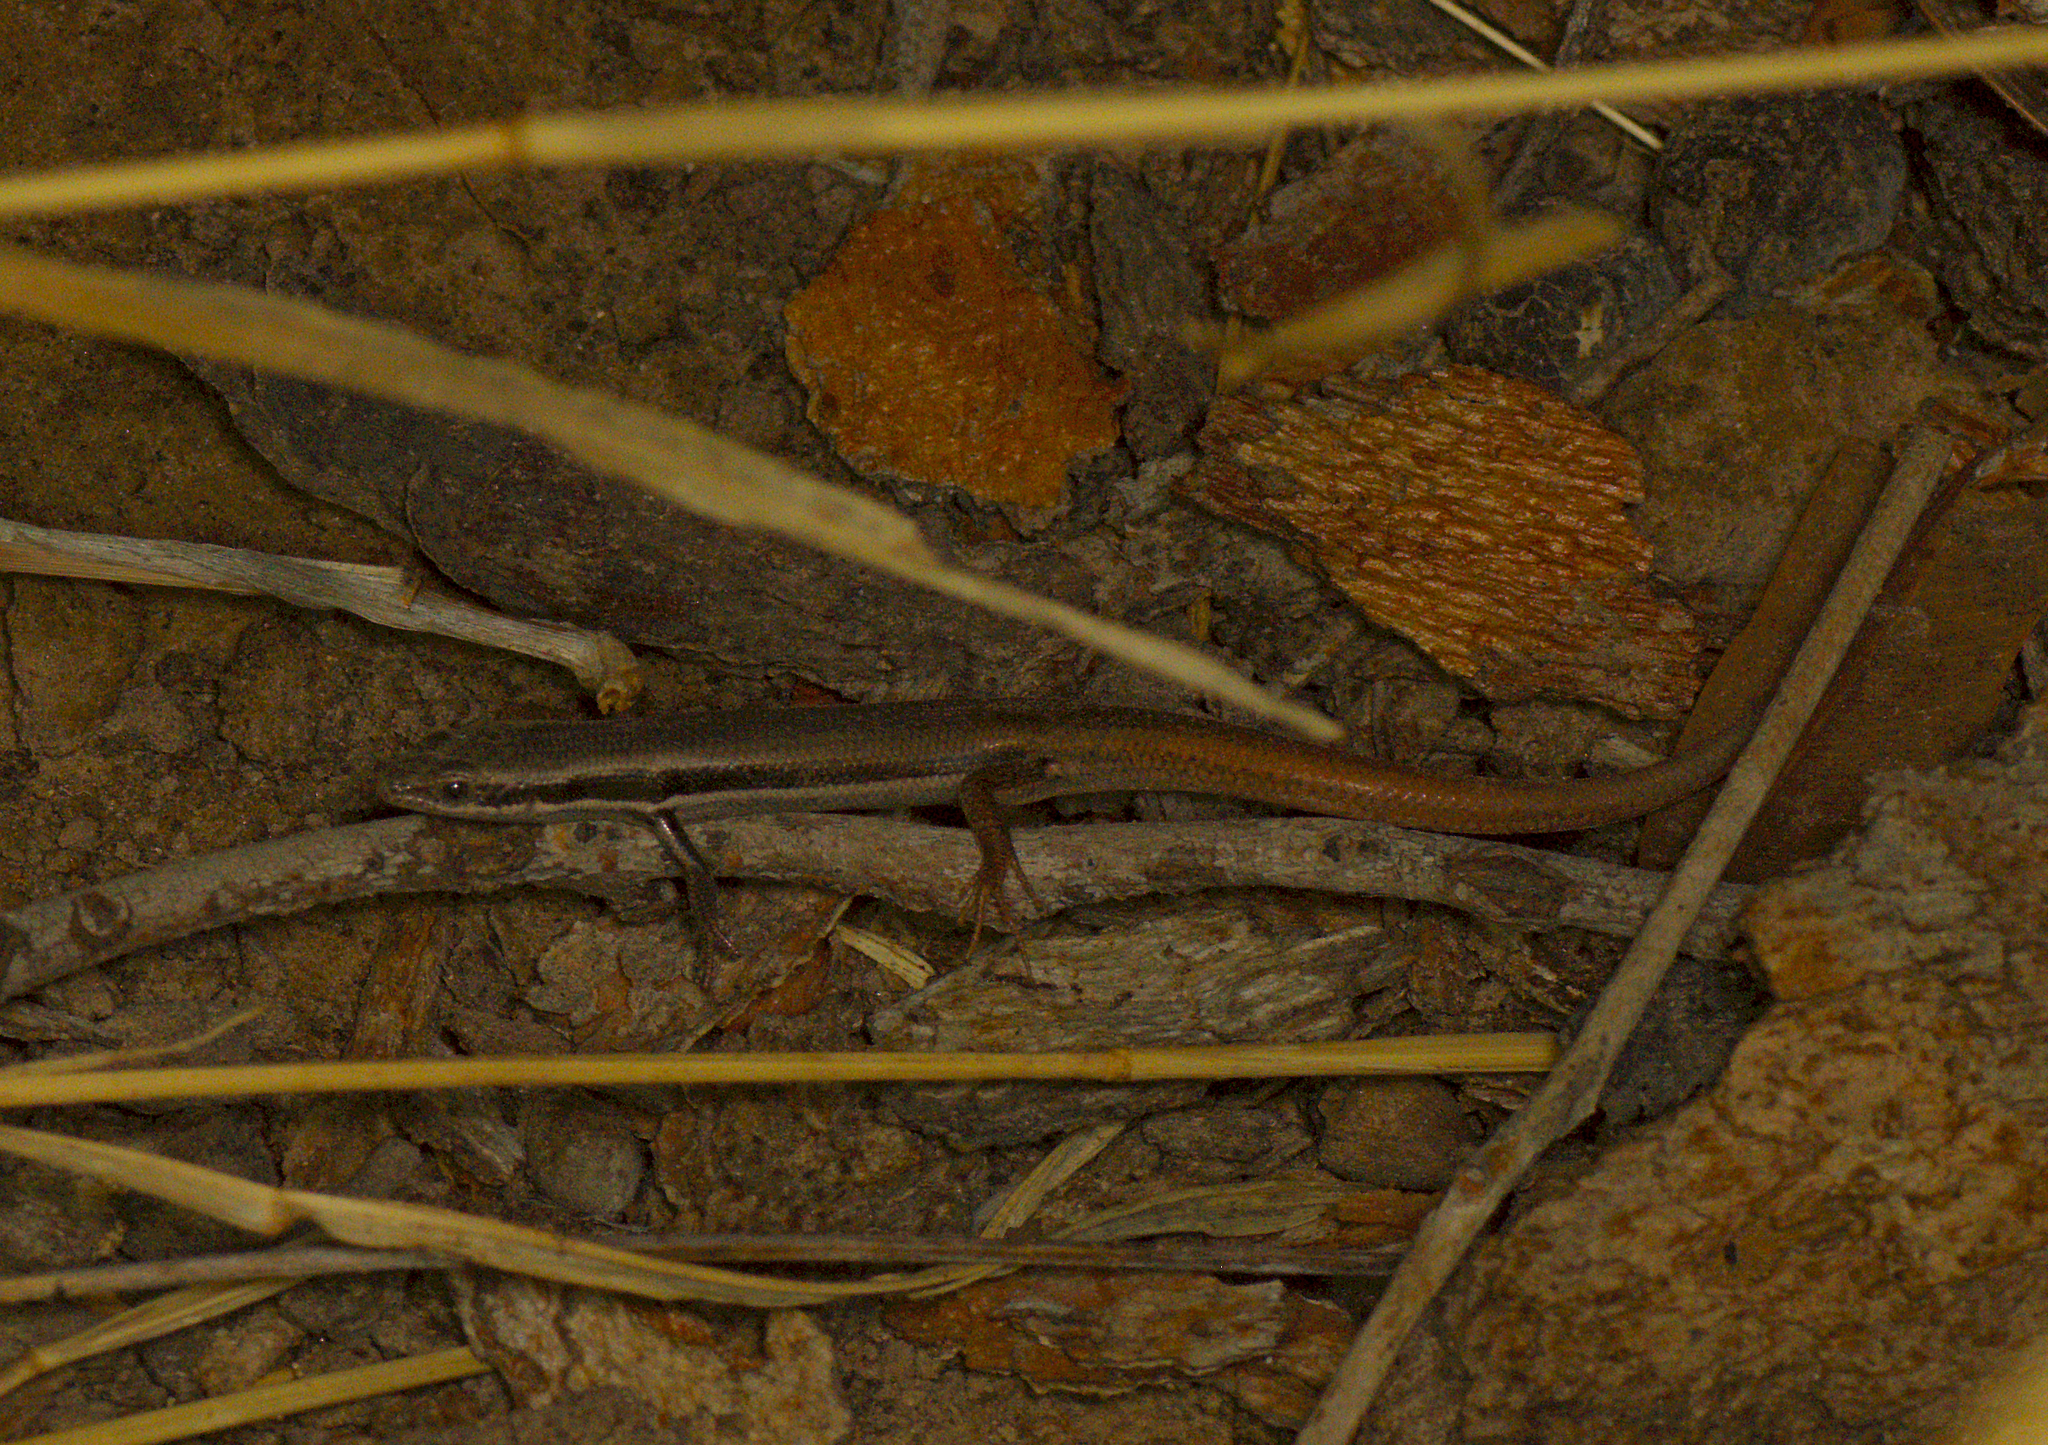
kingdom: Animalia
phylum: Chordata
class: Squamata
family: Scincidae
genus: Morethia
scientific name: Morethia boulengeri
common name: South-eastern morethia skink
